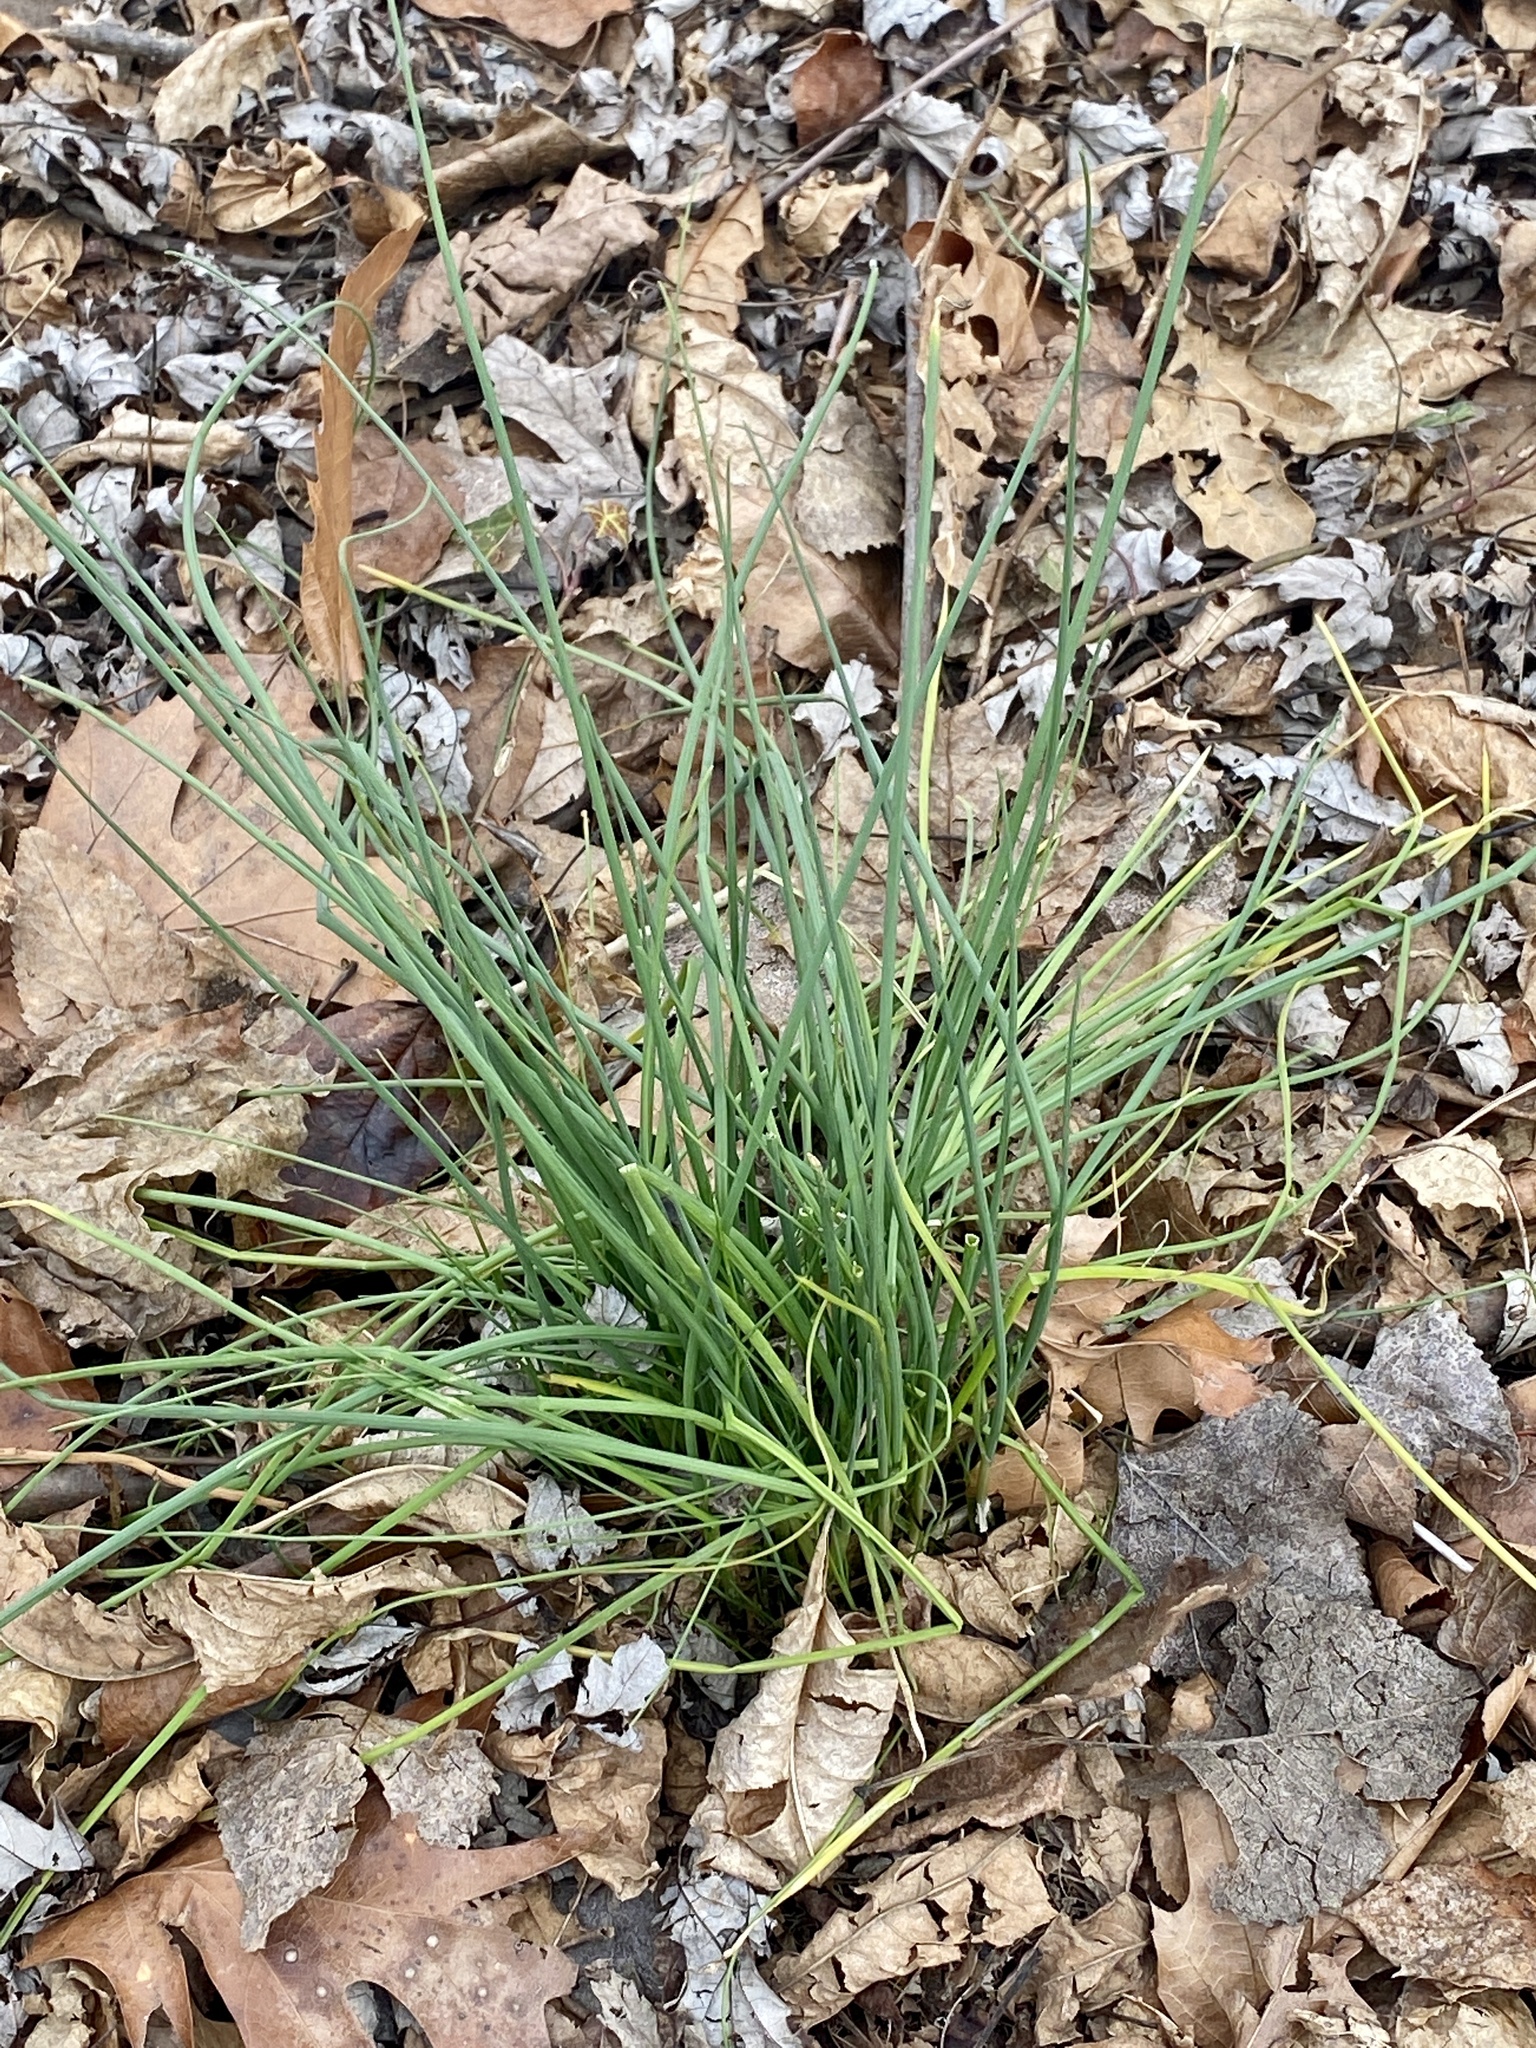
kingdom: Plantae
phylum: Tracheophyta
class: Liliopsida
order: Asparagales
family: Amaryllidaceae
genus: Allium
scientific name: Allium vineale
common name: Crow garlic
